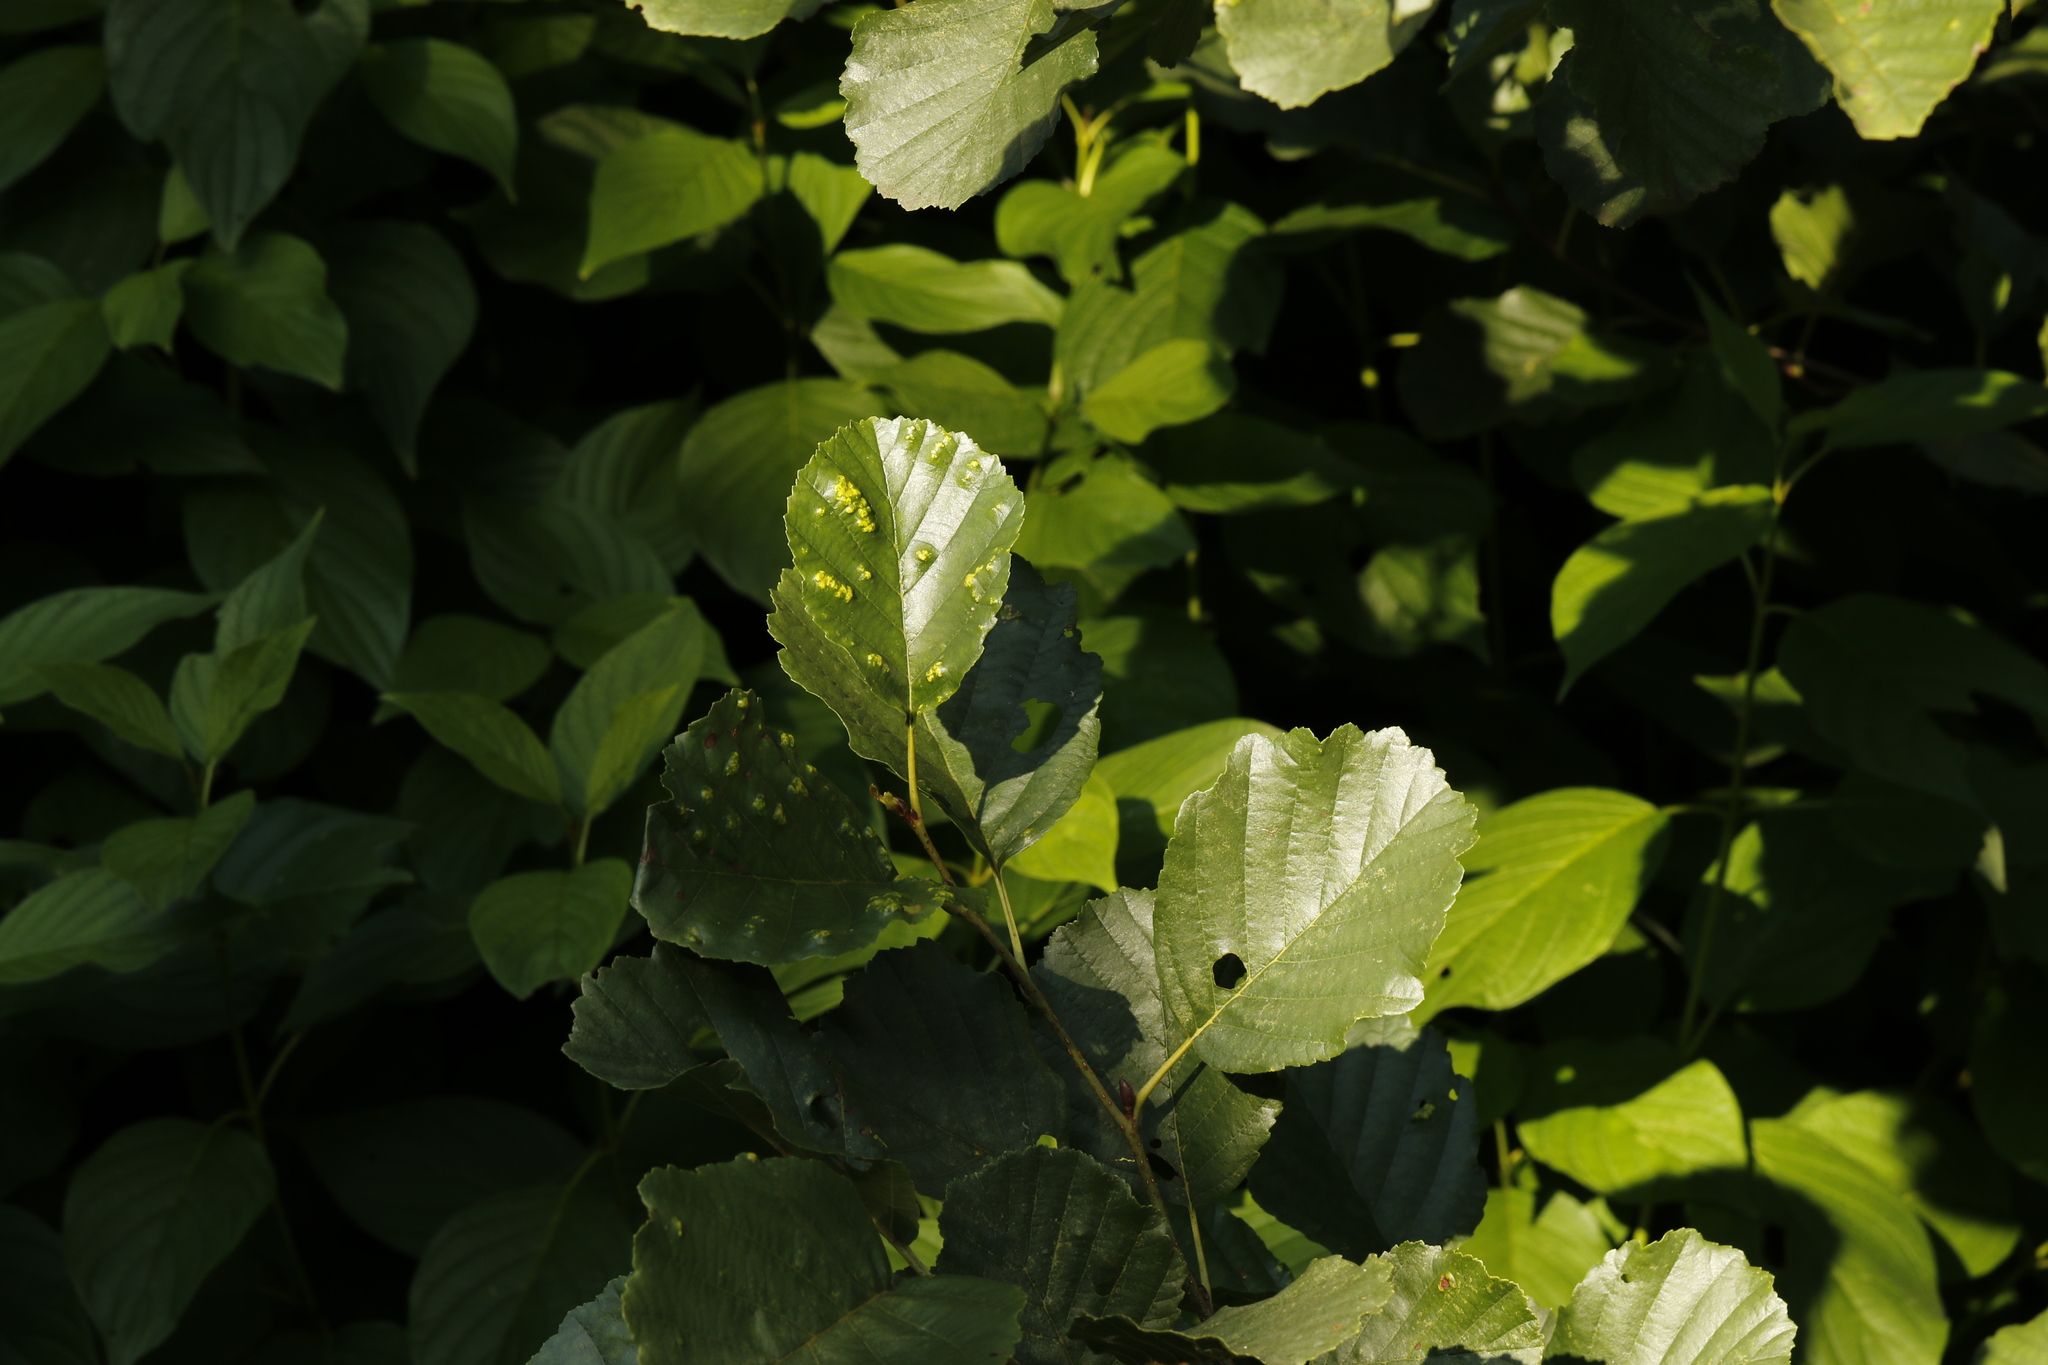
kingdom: Plantae
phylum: Tracheophyta
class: Magnoliopsida
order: Fagales
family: Betulaceae
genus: Alnus
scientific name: Alnus glutinosa
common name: Black alder
